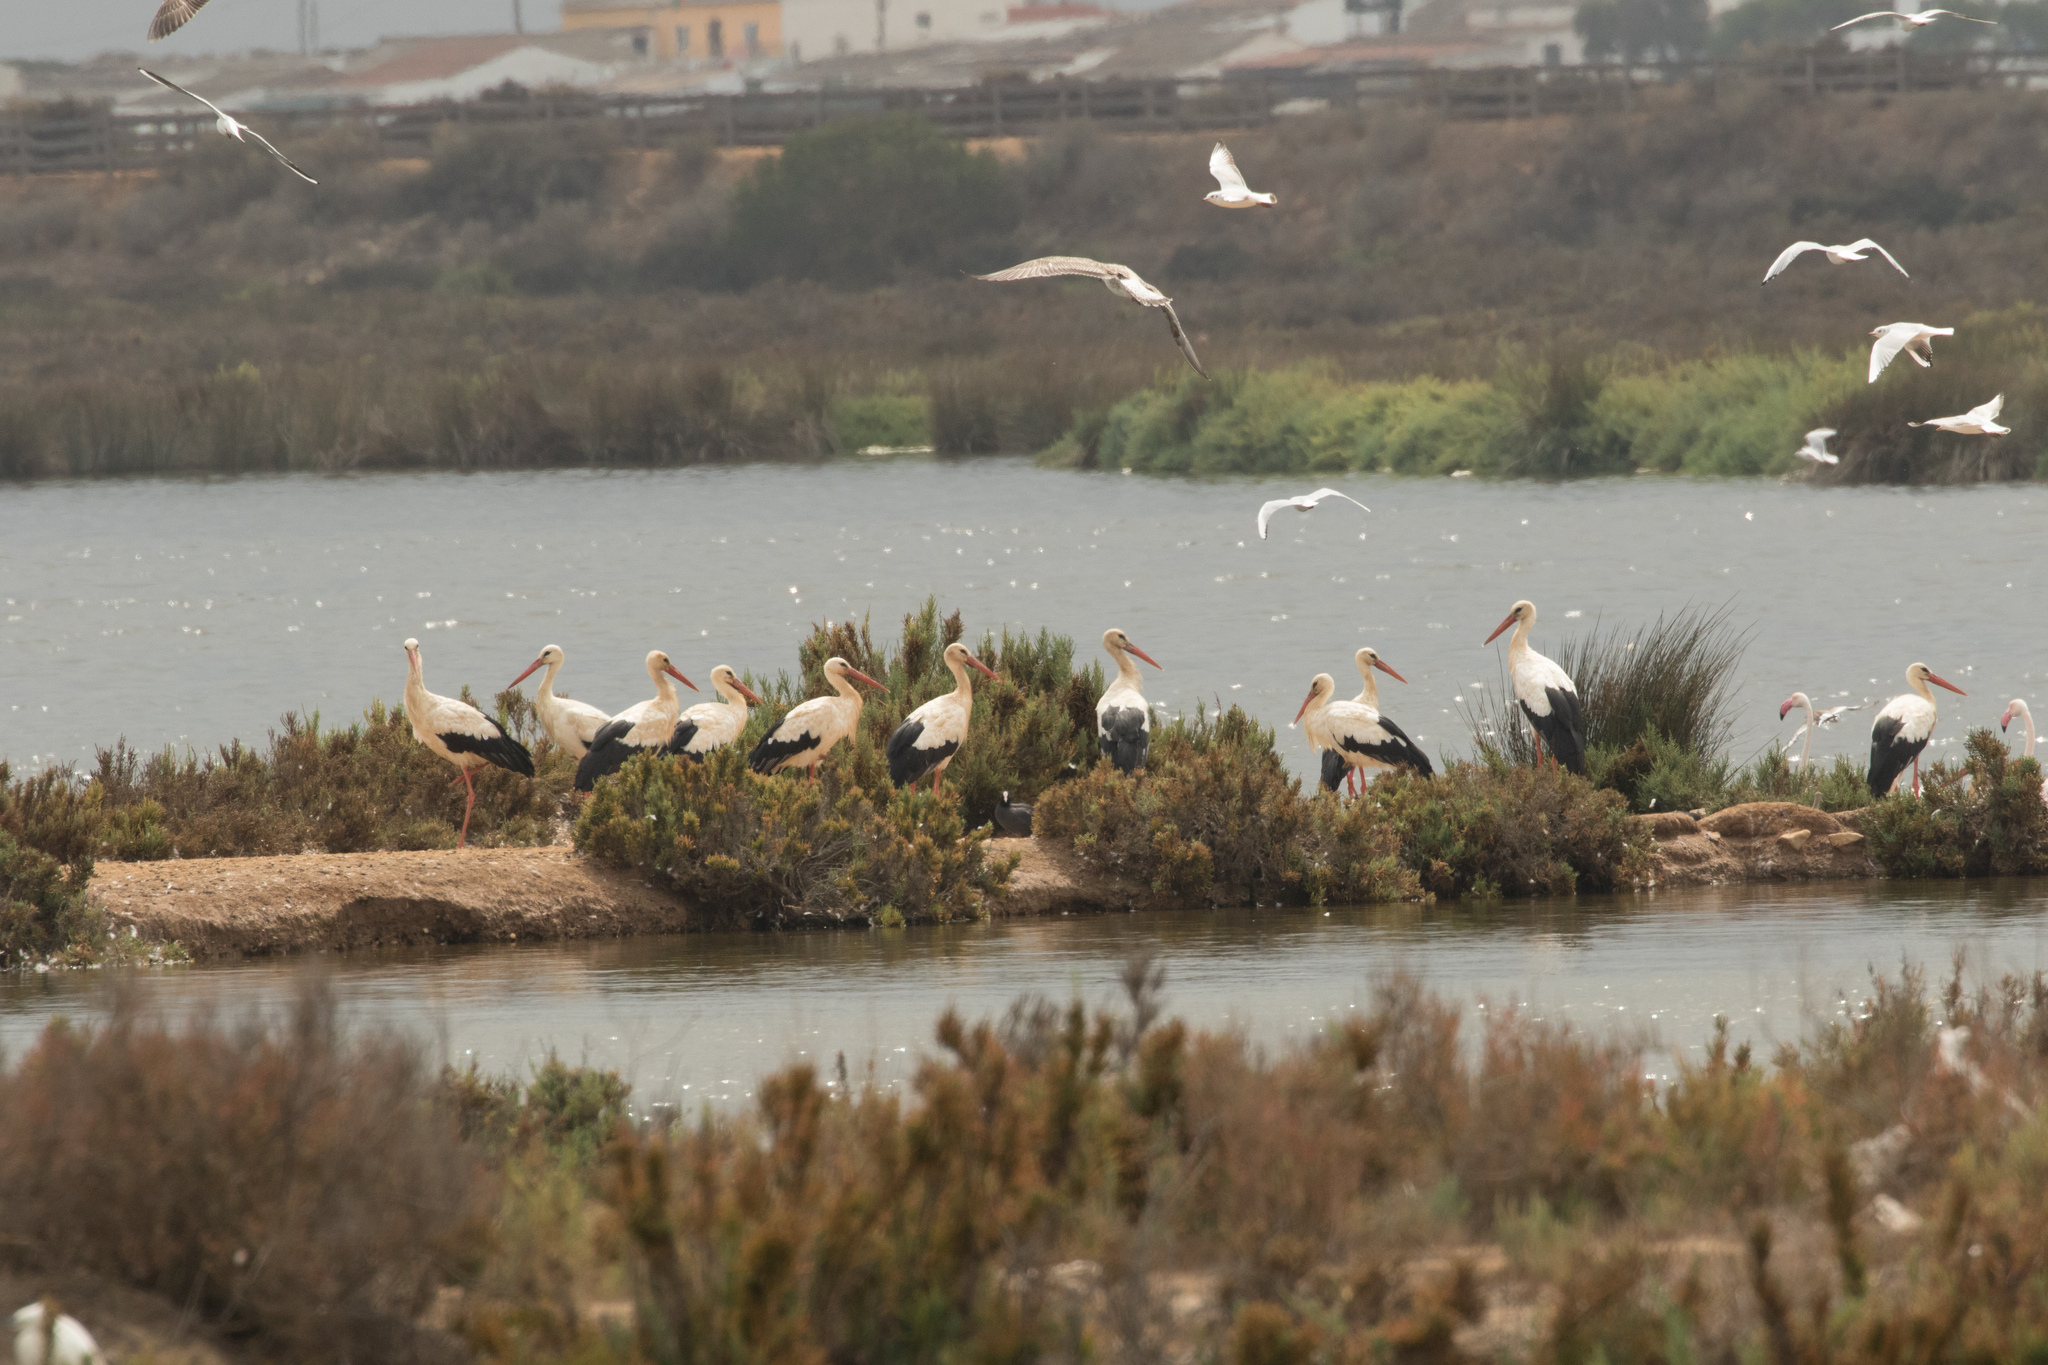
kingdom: Animalia
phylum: Chordata
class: Aves
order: Ciconiiformes
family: Ciconiidae
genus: Ciconia
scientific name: Ciconia ciconia
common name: White stork
